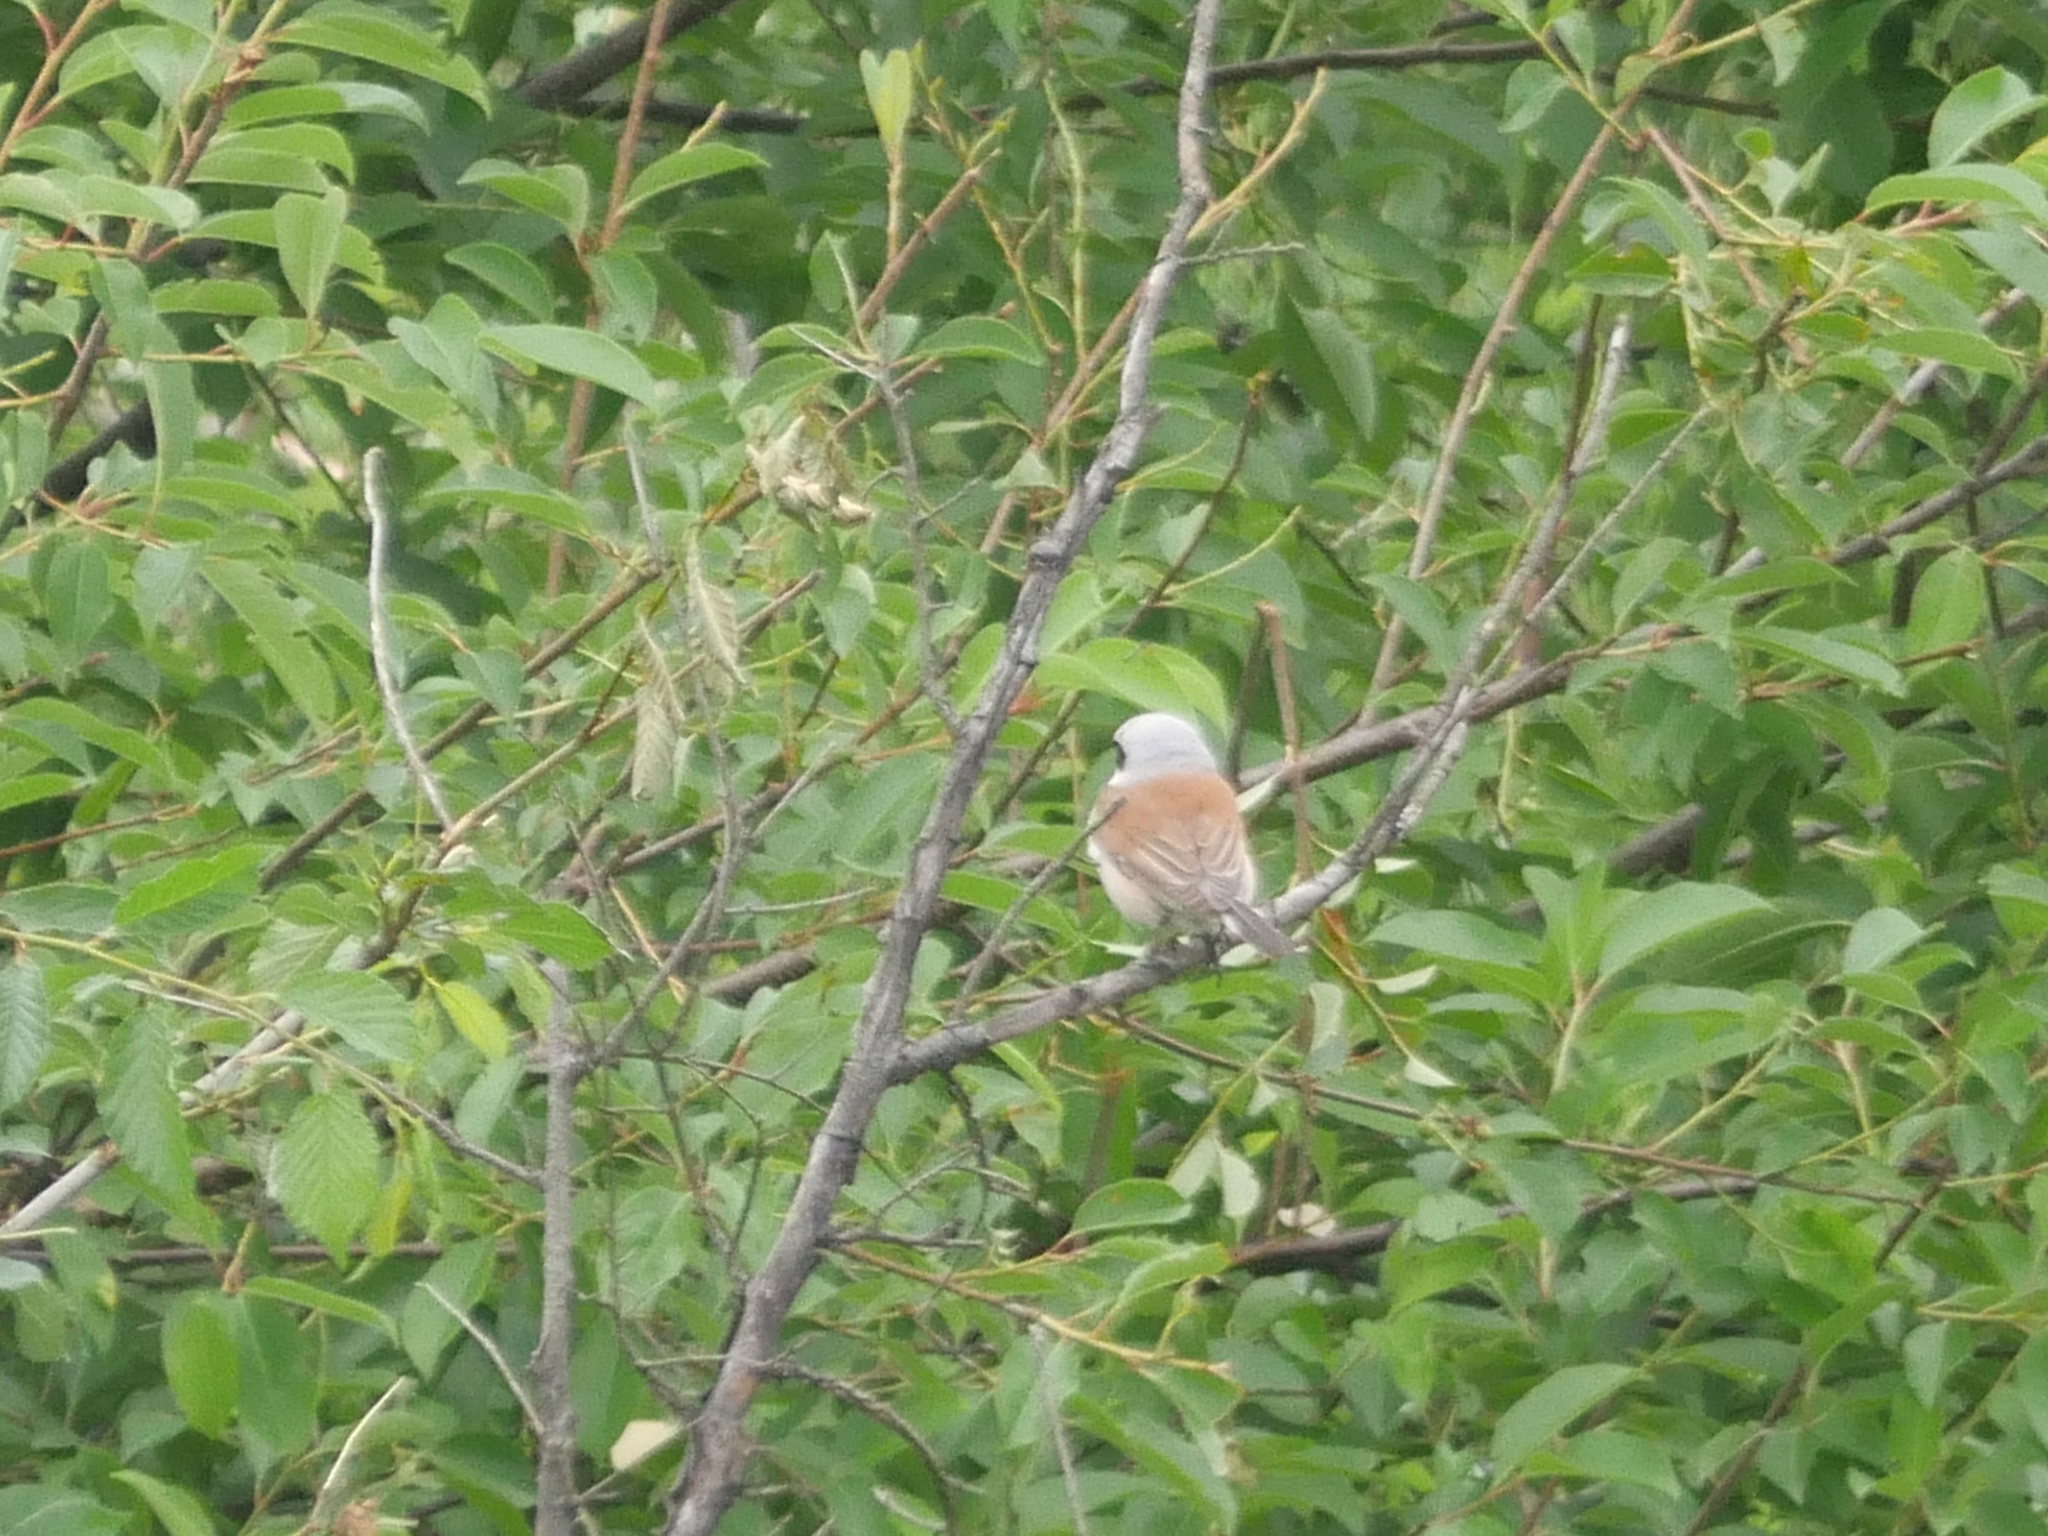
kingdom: Animalia
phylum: Chordata
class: Aves
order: Passeriformes
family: Laniidae
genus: Lanius
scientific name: Lanius collurio
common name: Red-backed shrike
